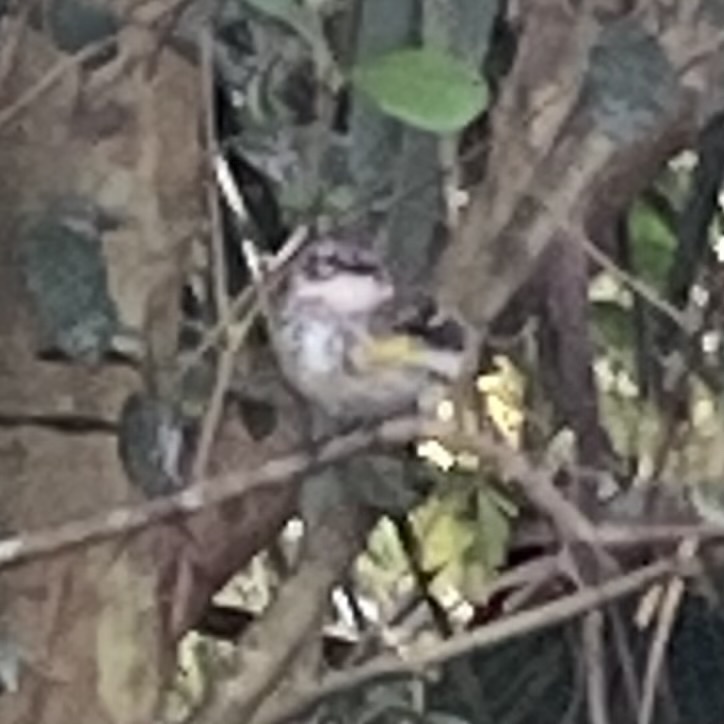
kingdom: Animalia
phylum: Chordata
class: Aves
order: Passeriformes
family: Parulidae
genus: Setophaga
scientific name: Setophaga coronata
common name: Myrtle warbler
